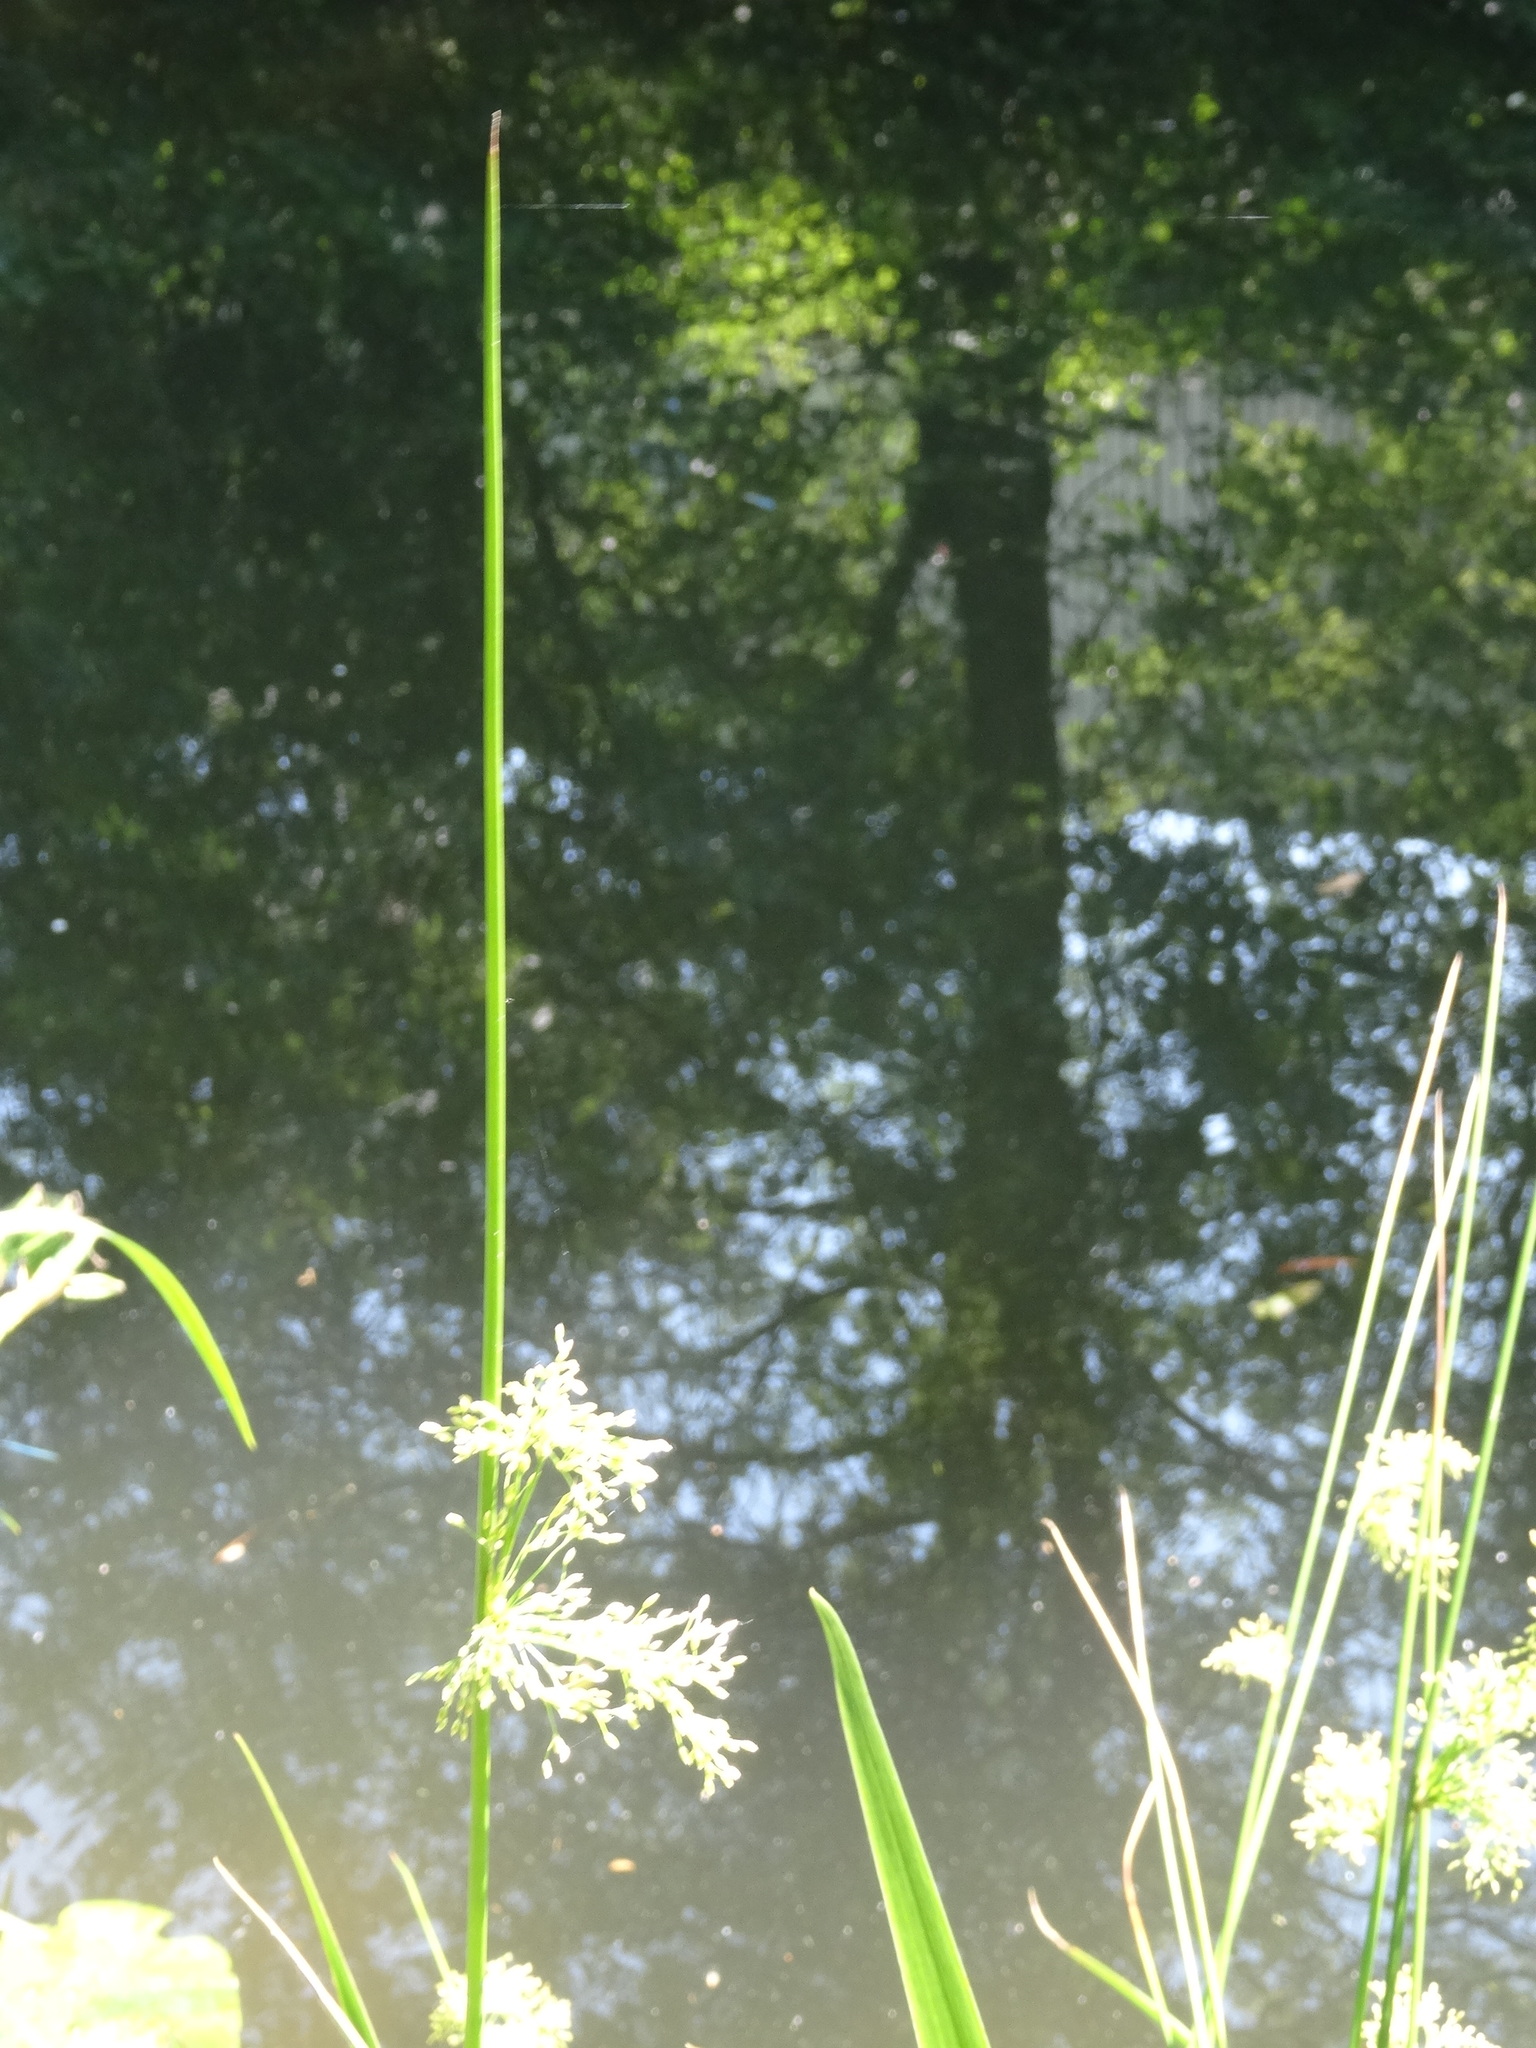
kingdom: Plantae
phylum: Tracheophyta
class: Liliopsida
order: Poales
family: Juncaceae
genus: Juncus
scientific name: Juncus effusus
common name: Soft rush
